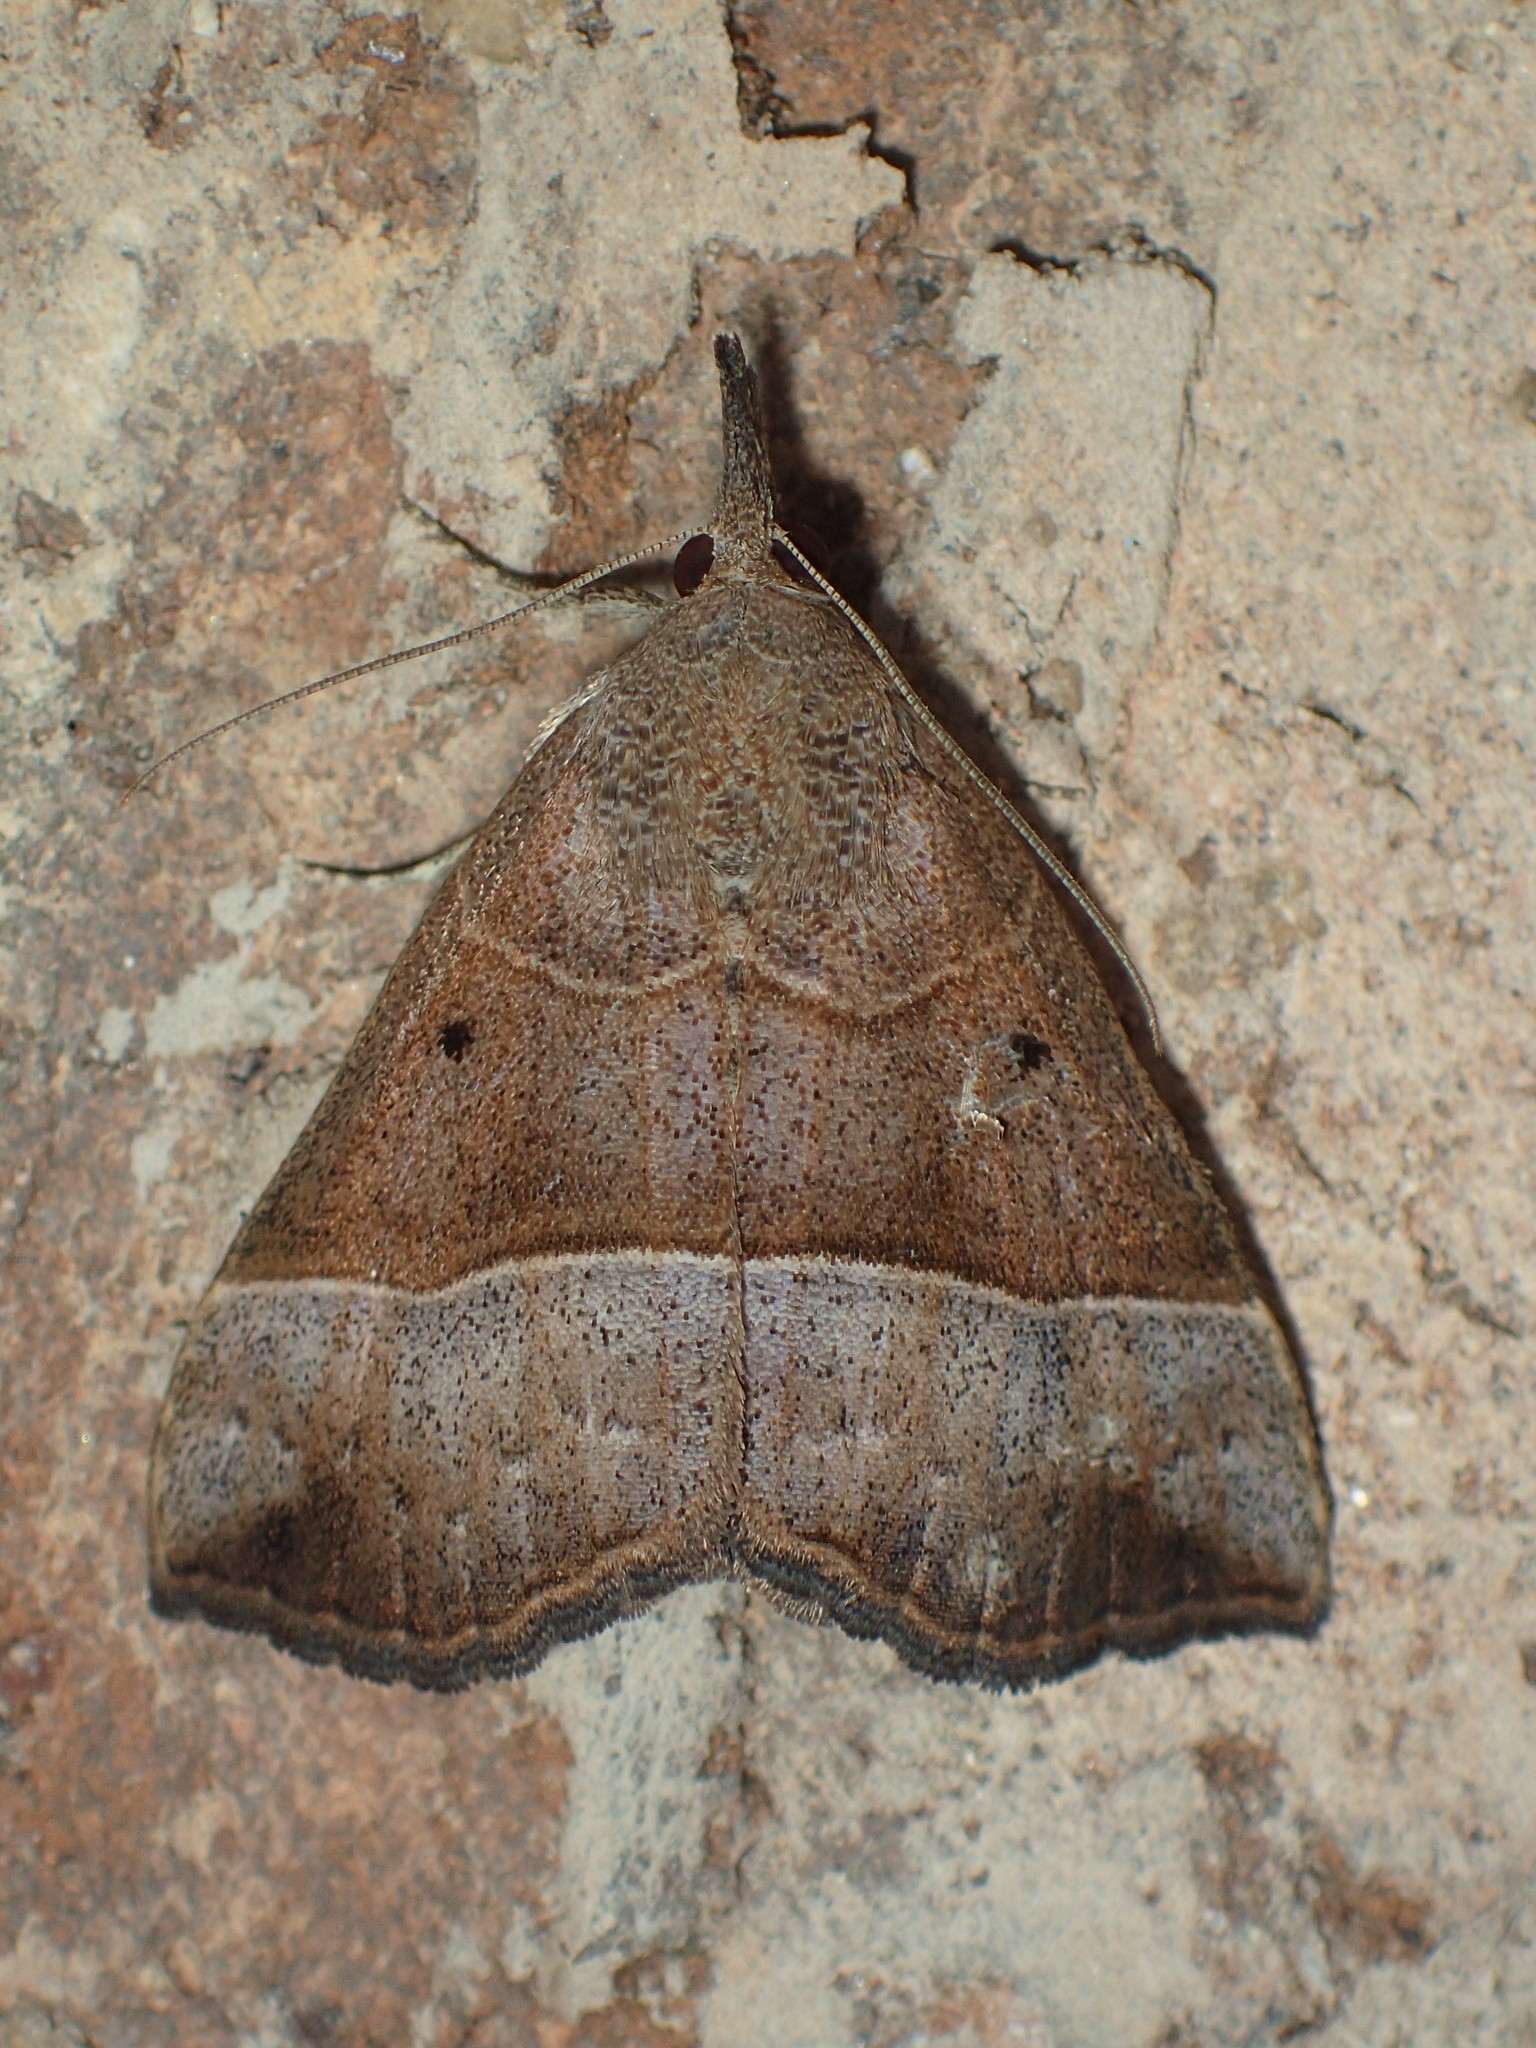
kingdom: Animalia
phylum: Arthropoda
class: Insecta
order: Lepidoptera
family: Erebidae
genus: Hypena
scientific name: Hypena deceptalis
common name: Deceptive snout
